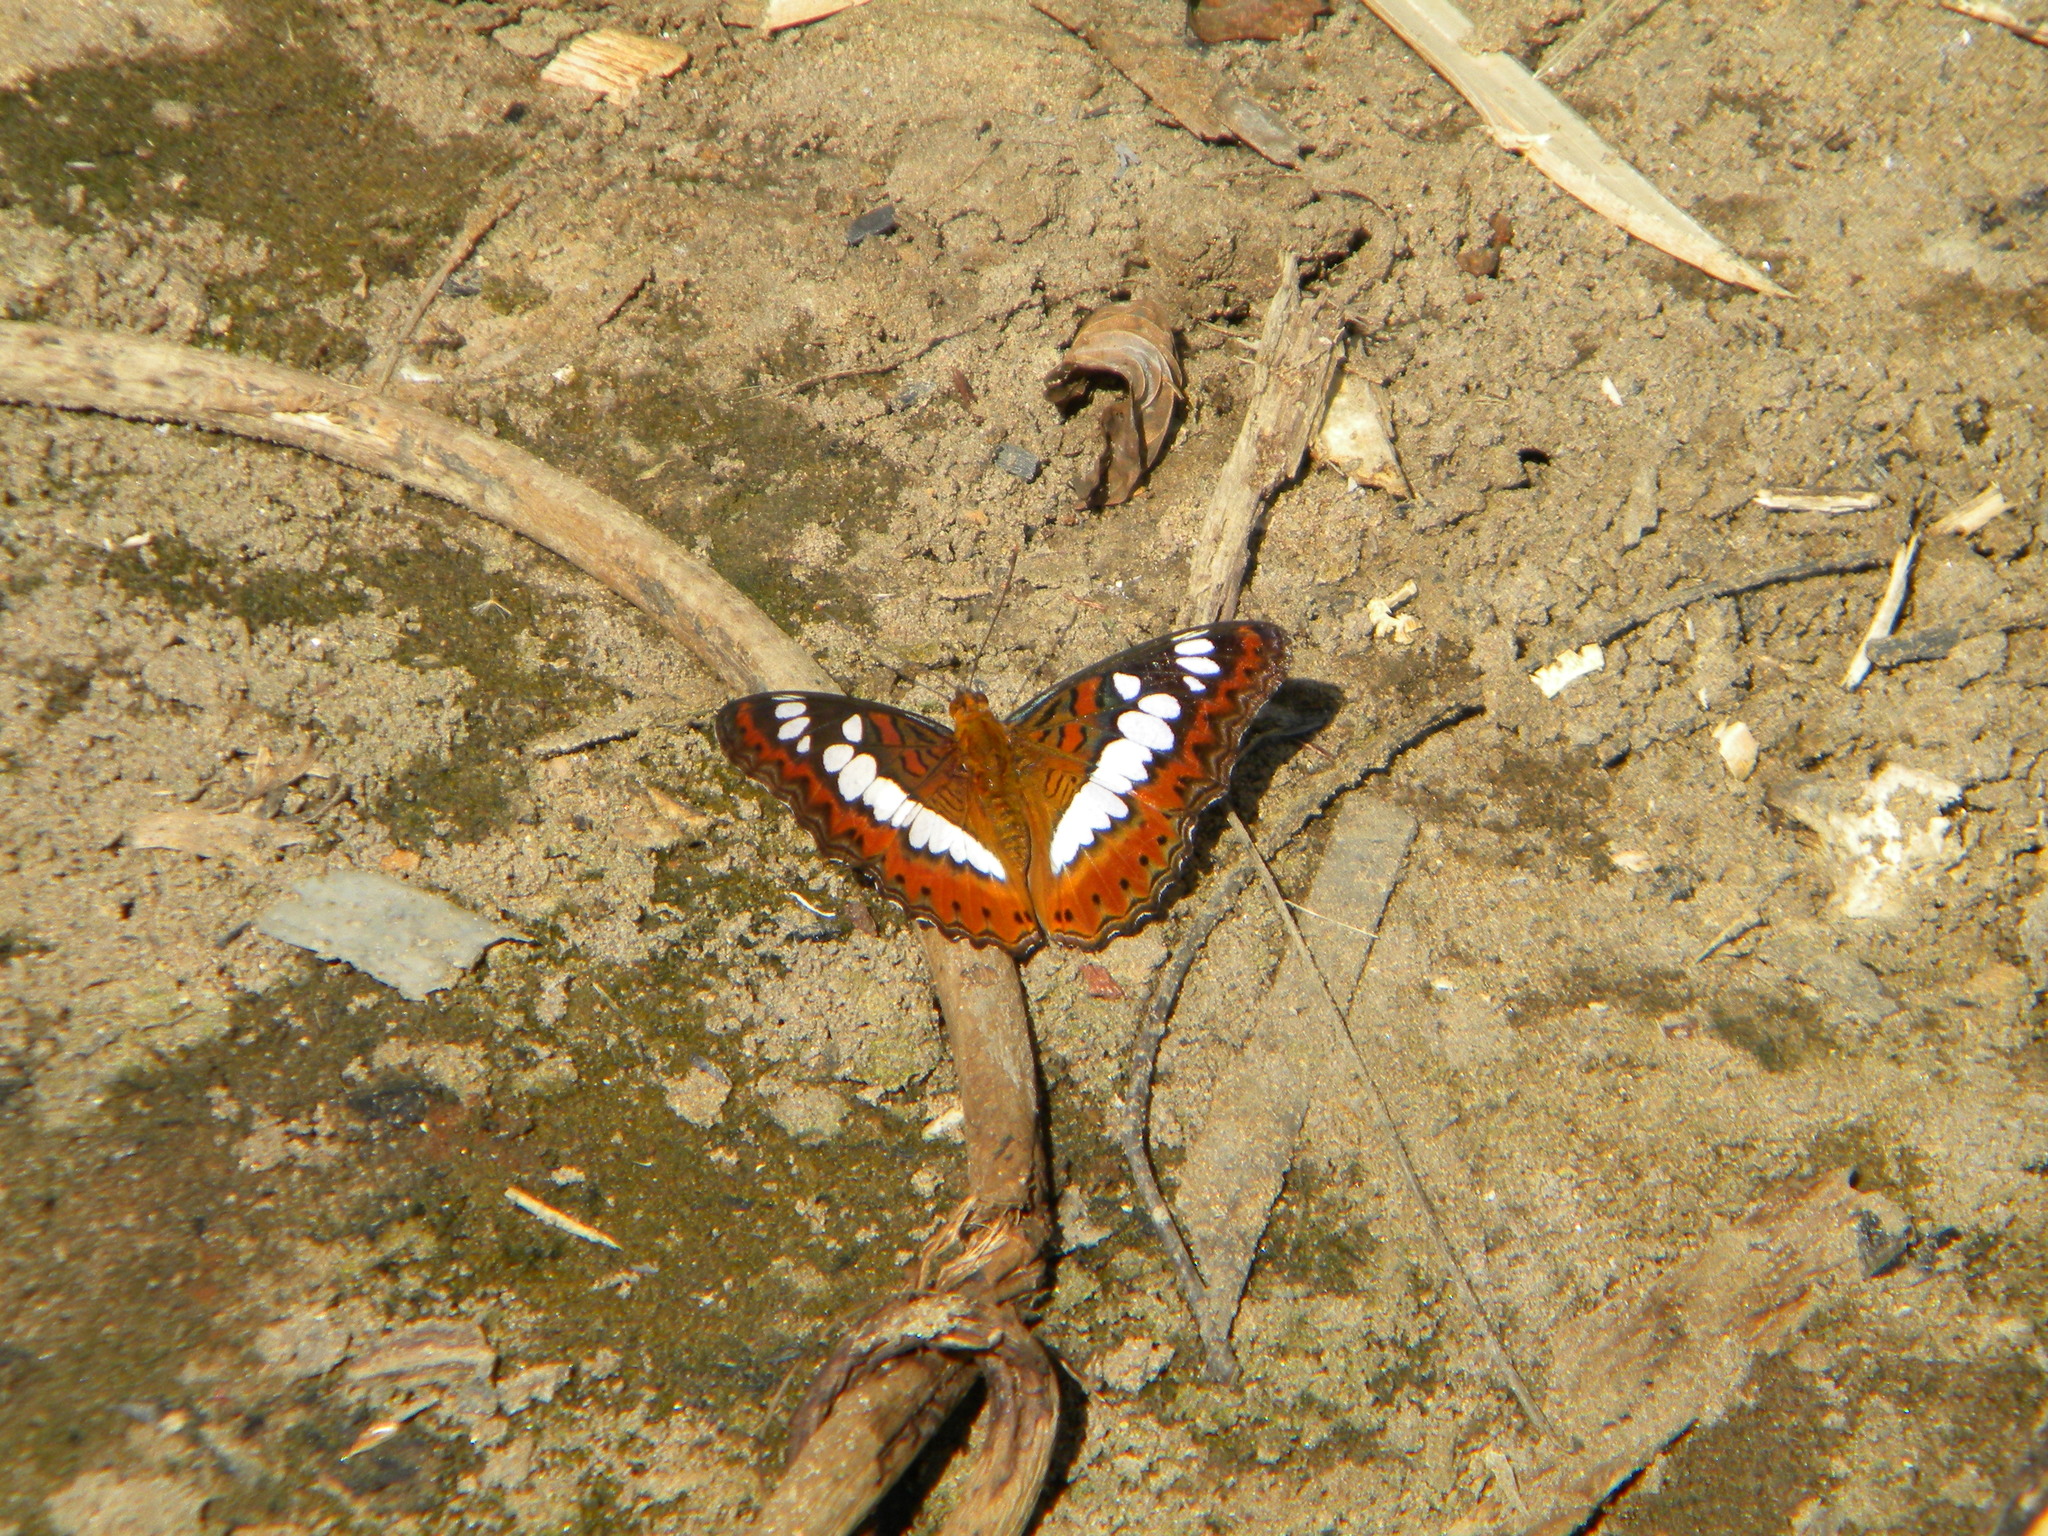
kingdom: Animalia
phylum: Arthropoda
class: Insecta
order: Lepidoptera
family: Nymphalidae
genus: Limenitis
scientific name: Limenitis Moduza procris
